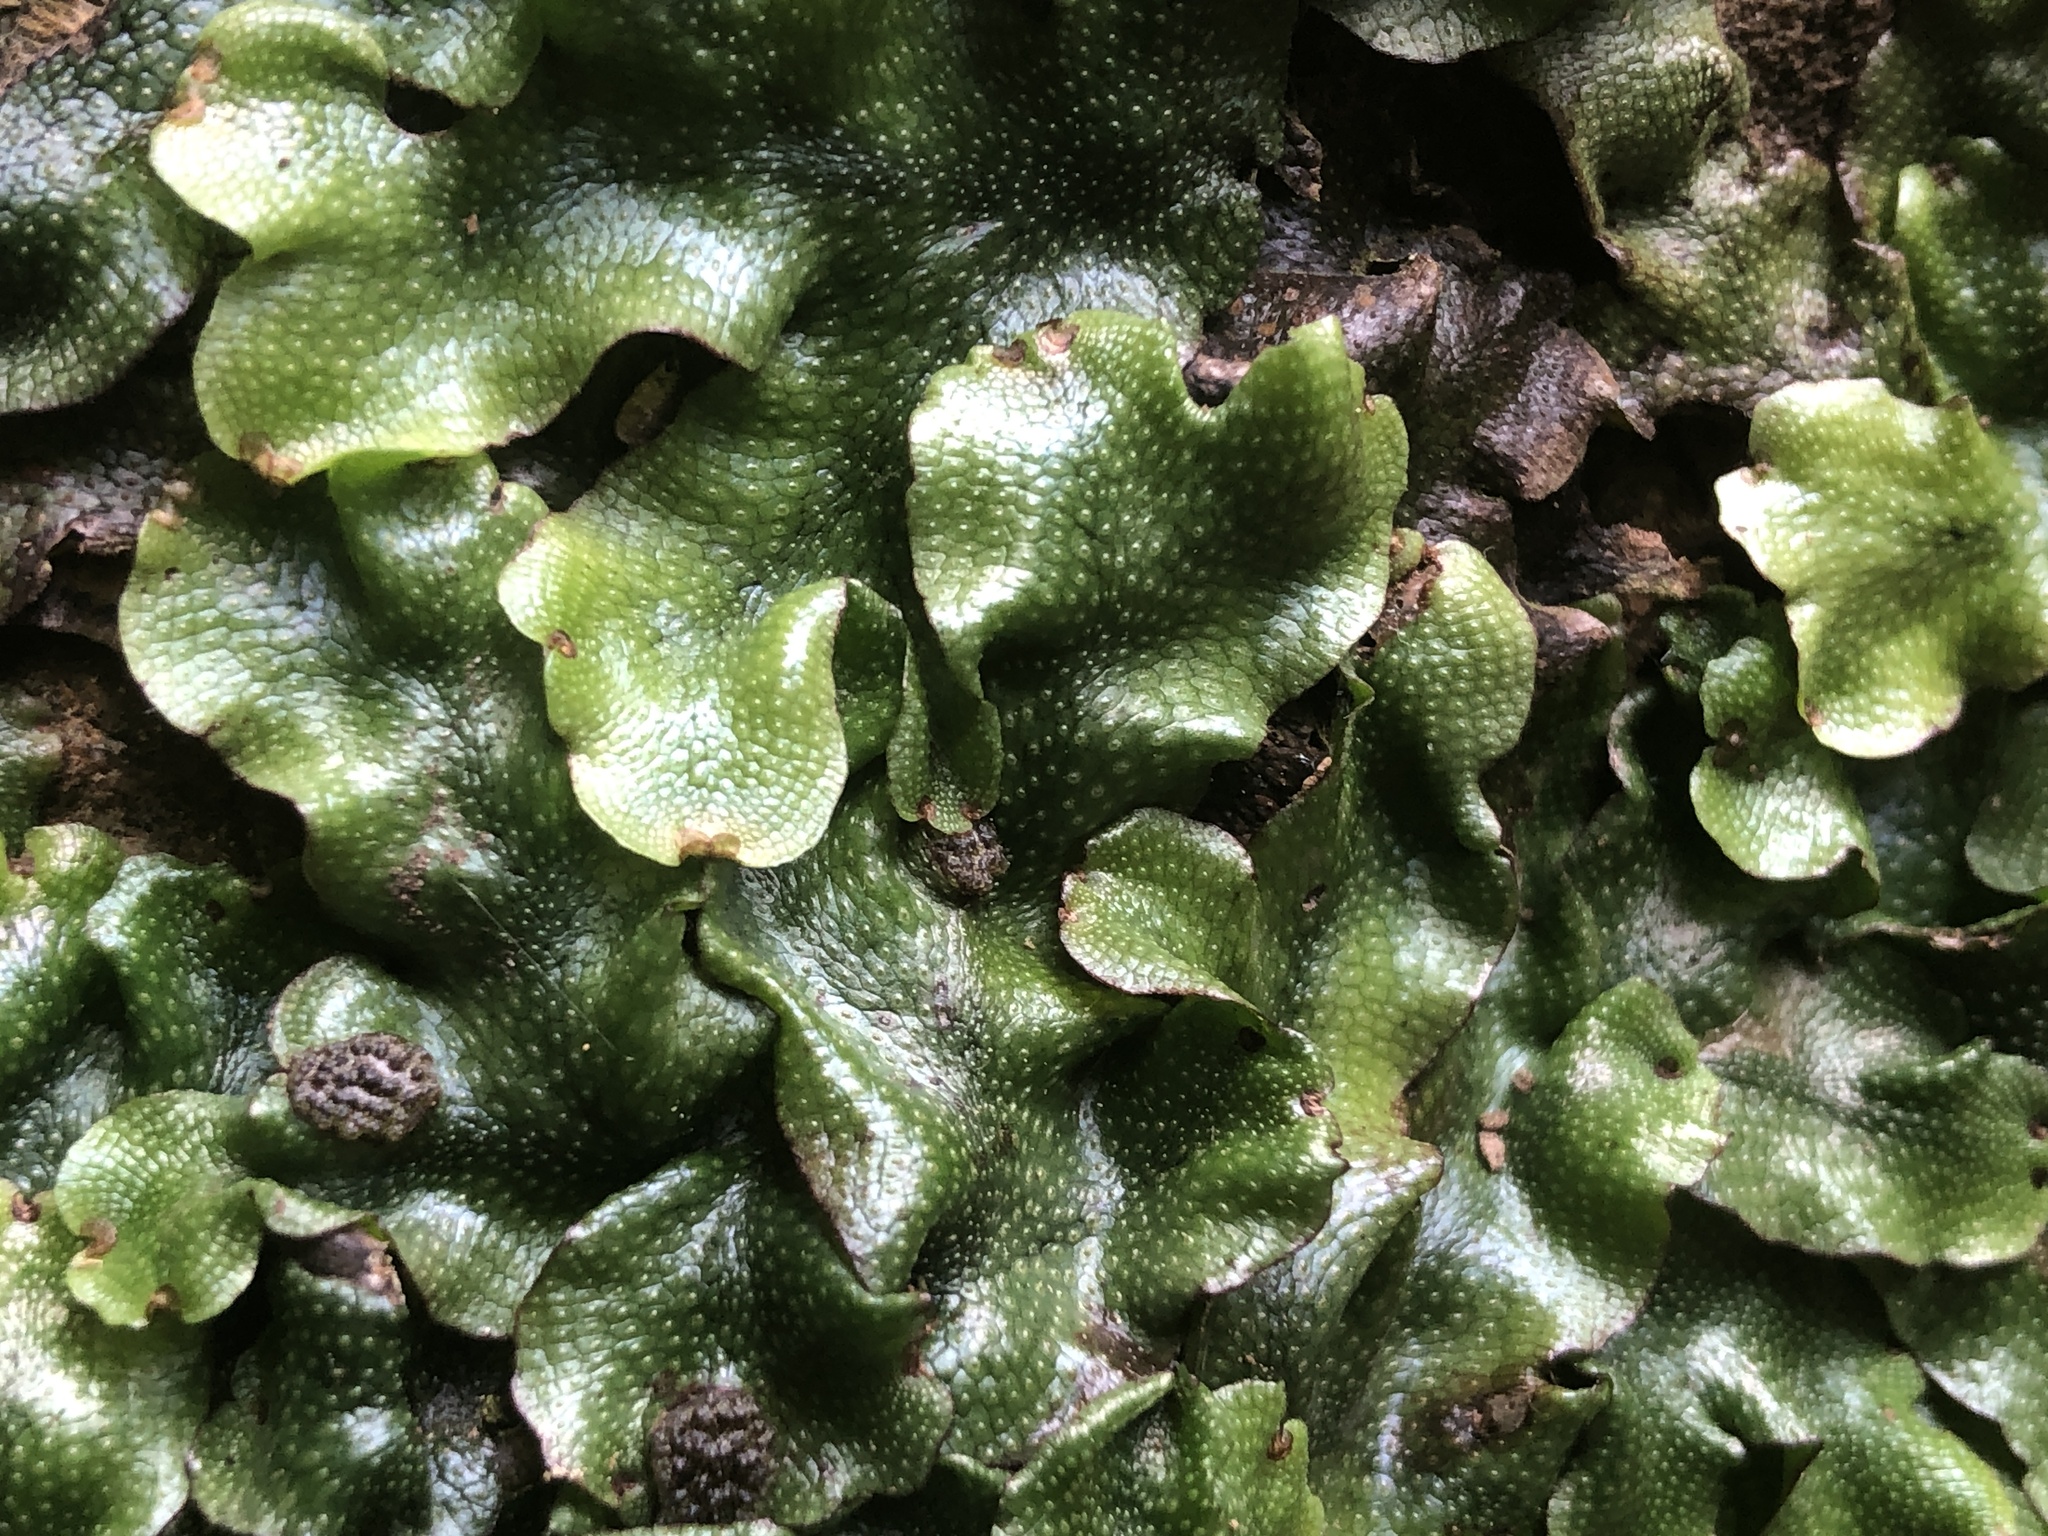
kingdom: Plantae
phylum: Marchantiophyta
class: Marchantiopsida
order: Marchantiales
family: Conocephalaceae
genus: Conocephalum
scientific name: Conocephalum conicum
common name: Great scented liverwort
